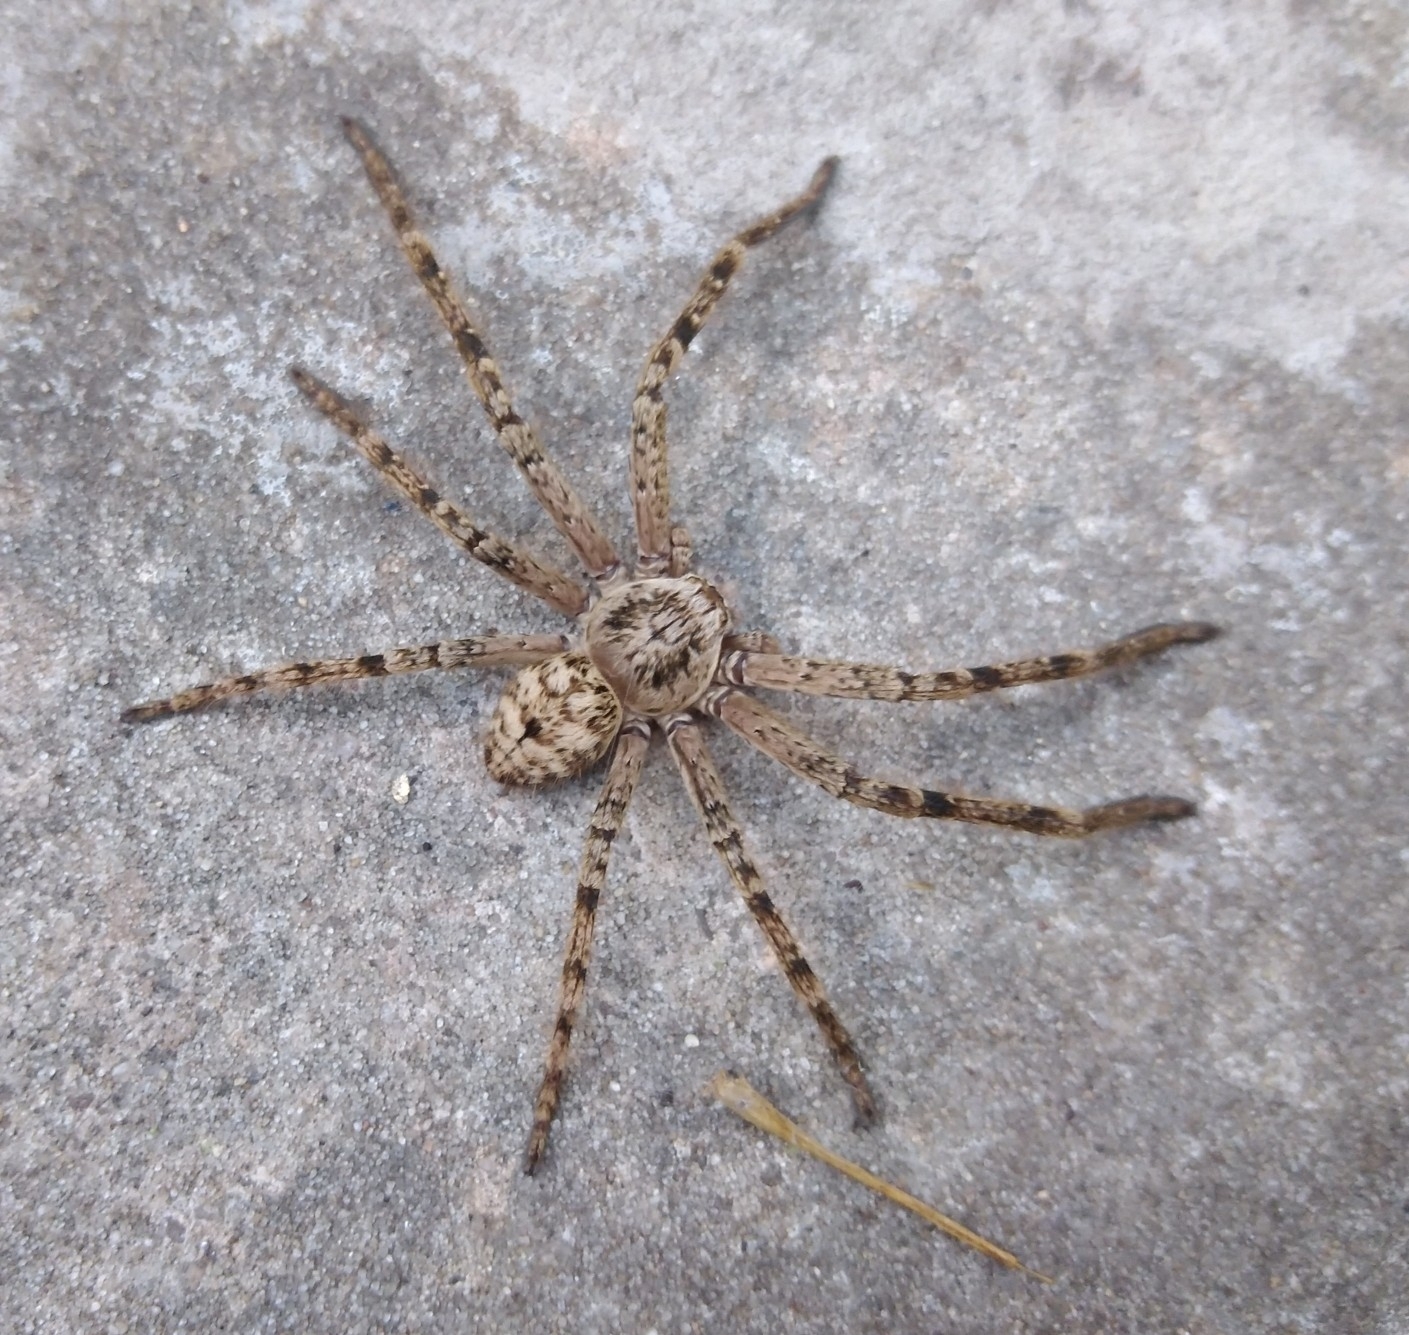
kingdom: Animalia
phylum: Arthropoda
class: Arachnida
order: Araneae
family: Sparassidae
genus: Polybetes
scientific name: Polybetes rapidus
